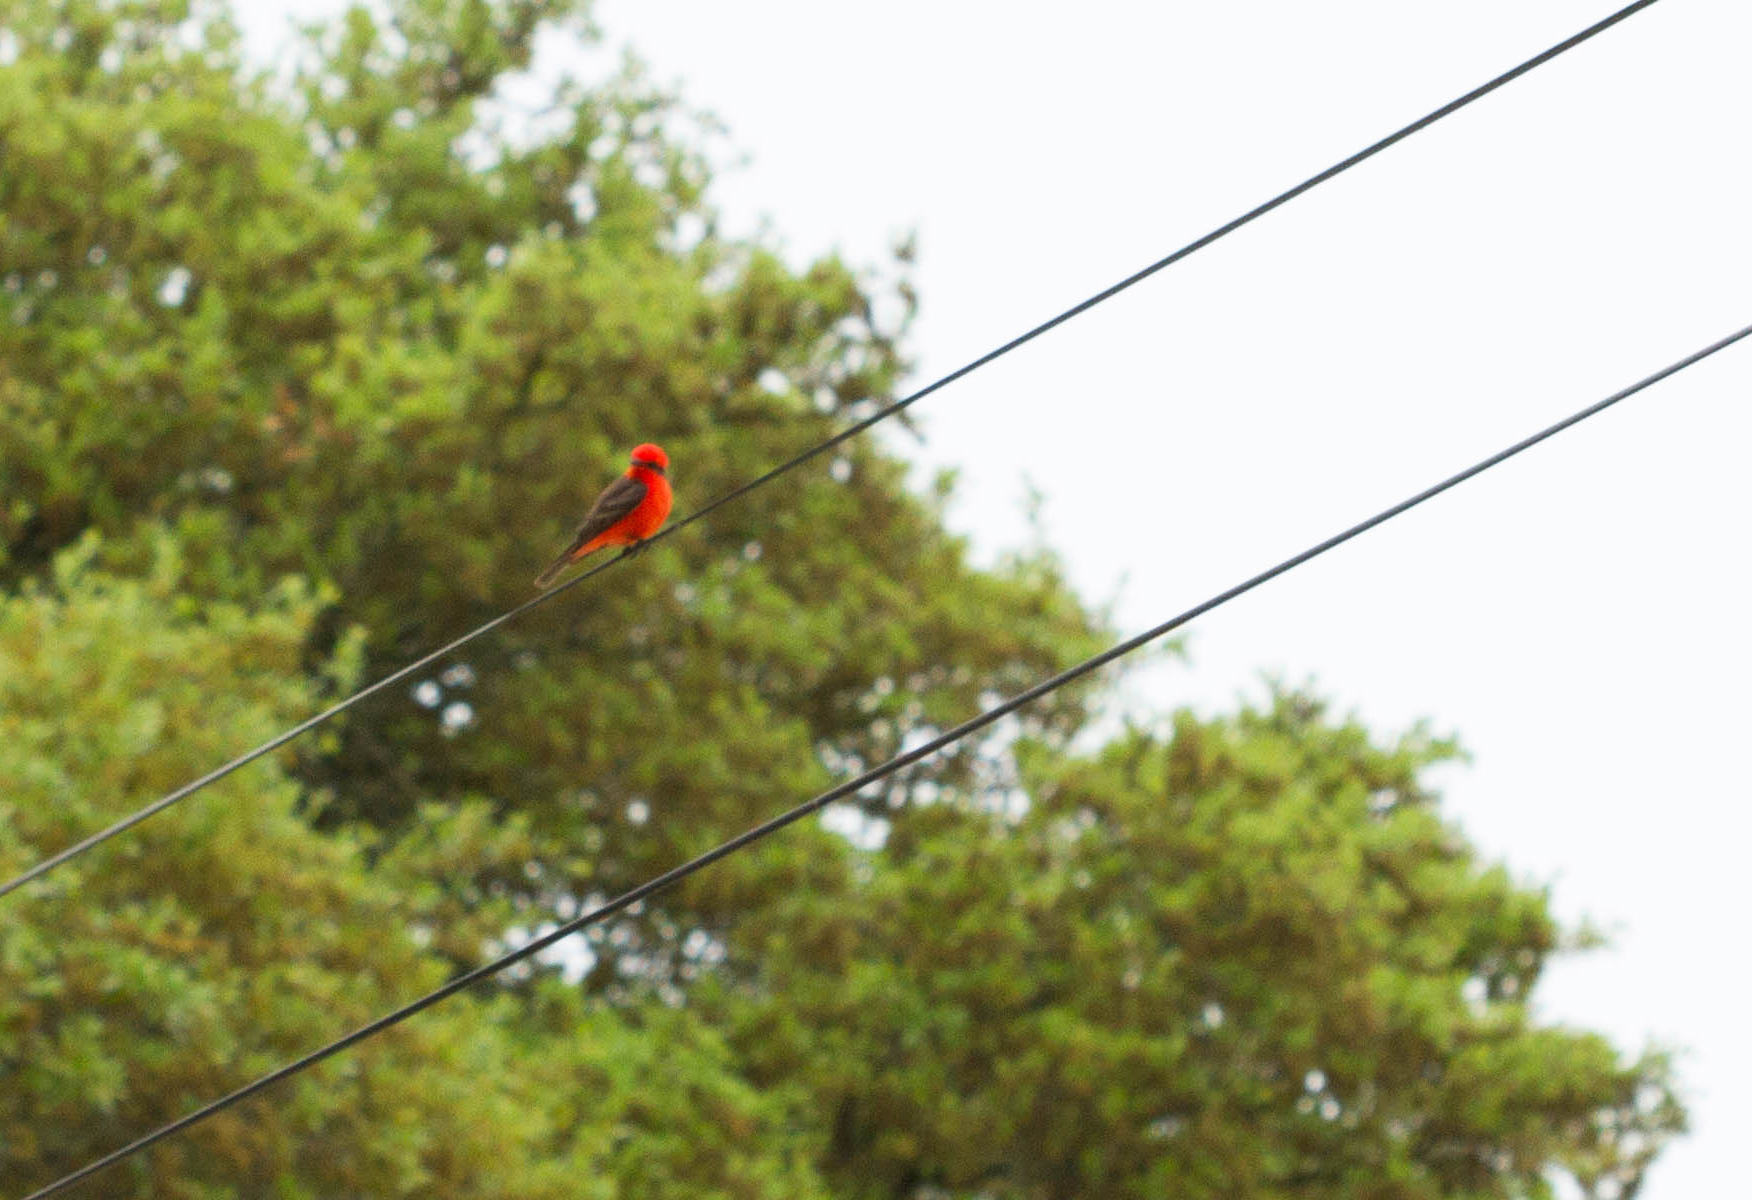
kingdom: Animalia
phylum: Chordata
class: Aves
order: Passeriformes
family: Tyrannidae
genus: Pyrocephalus
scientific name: Pyrocephalus rubinus
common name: Vermilion flycatcher
